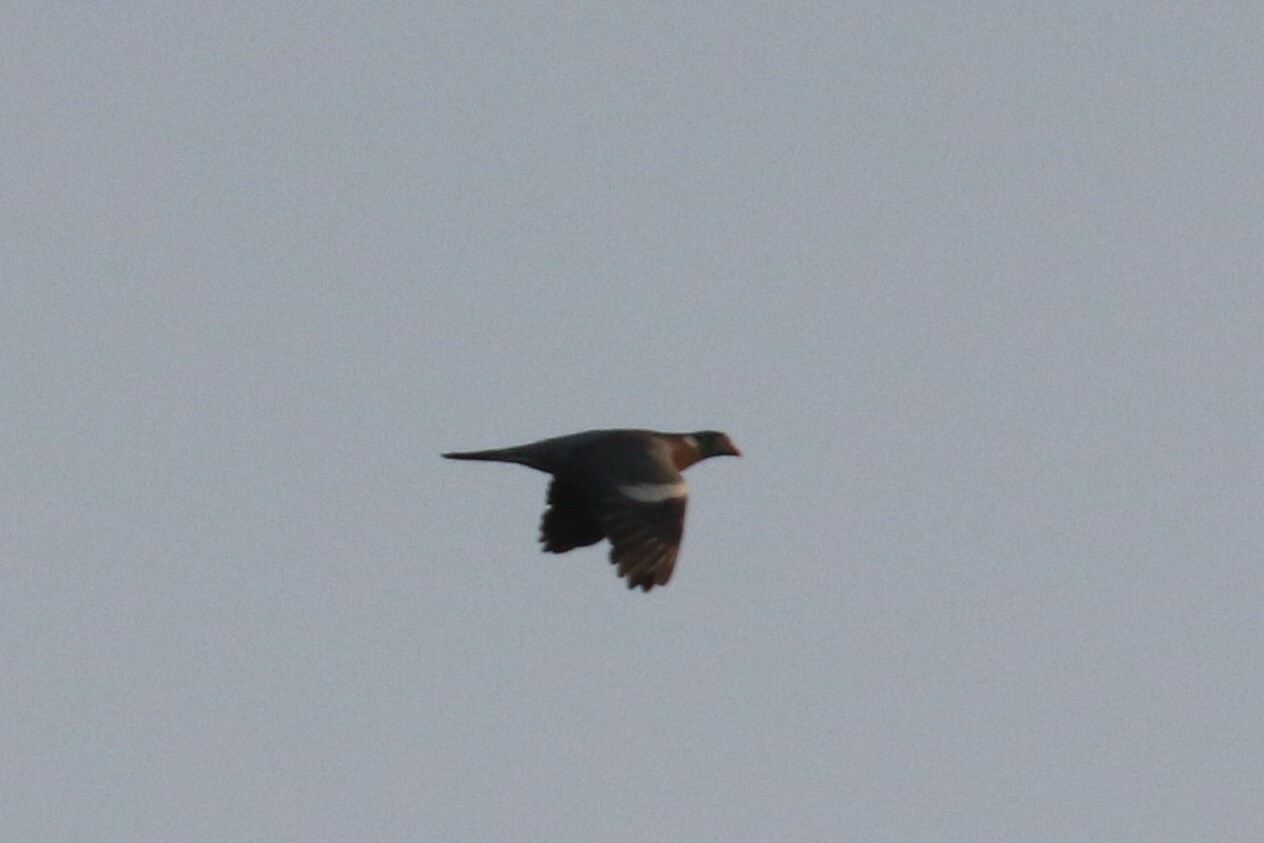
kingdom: Animalia
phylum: Chordata
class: Aves
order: Columbiformes
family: Columbidae
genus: Columba
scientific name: Columba palumbus
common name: Common wood pigeon
